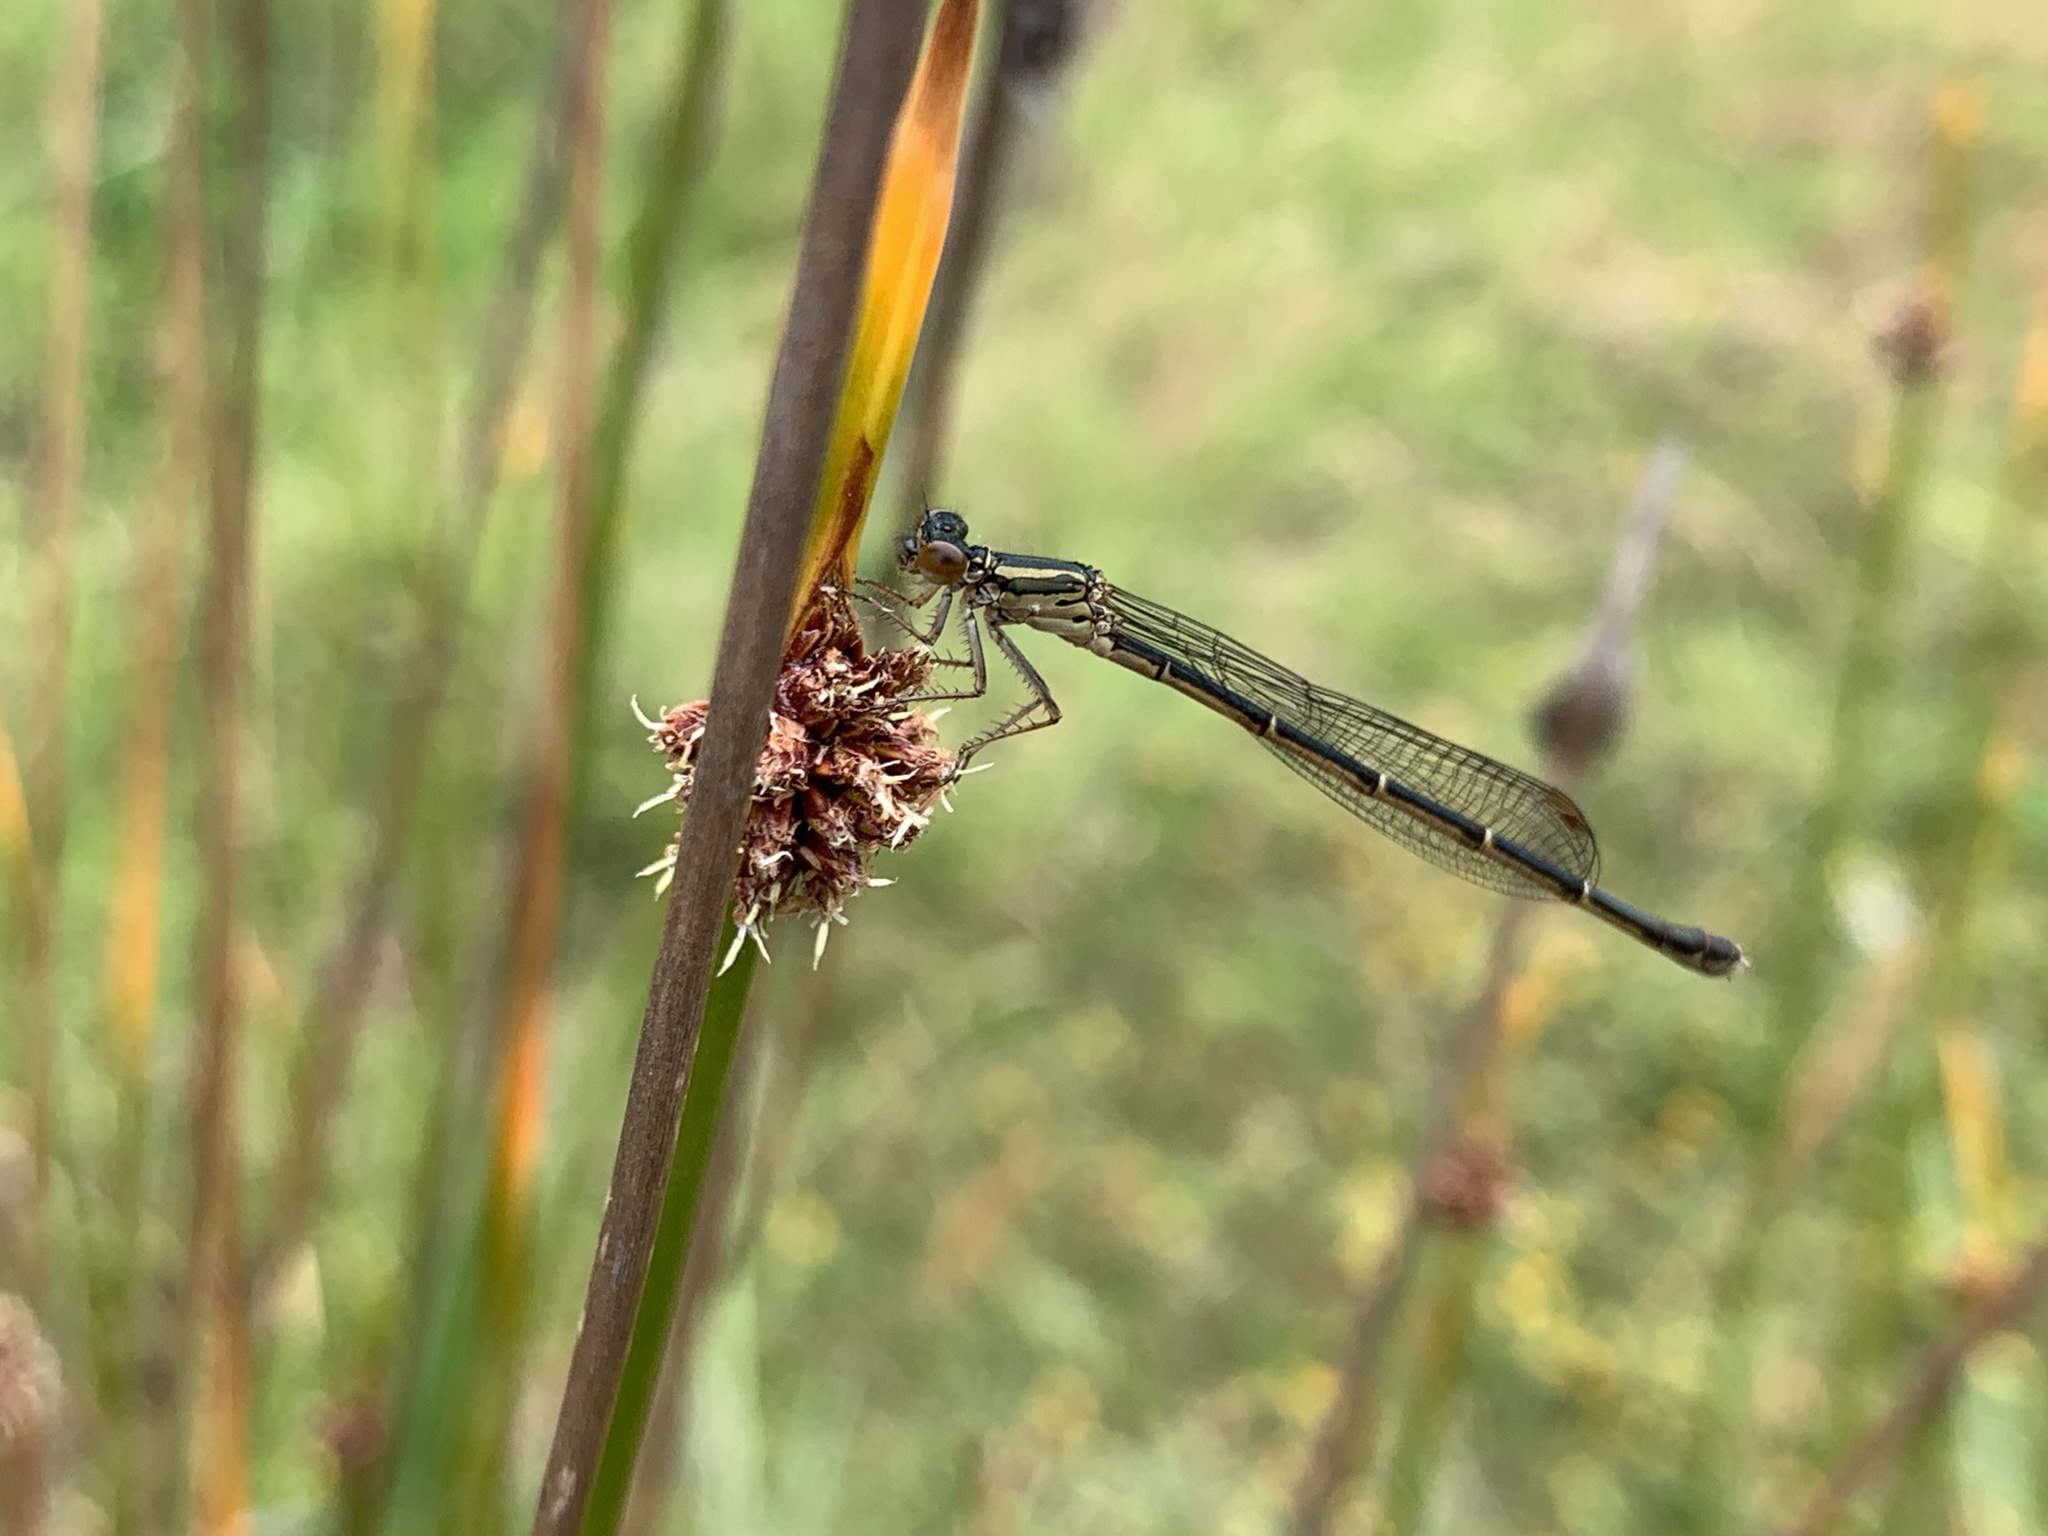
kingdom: Animalia
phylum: Arthropoda
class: Insecta
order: Odonata
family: Coenagrionidae
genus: Xanthocnemis
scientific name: Xanthocnemis zealandica
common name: Common redcoat damselfly
